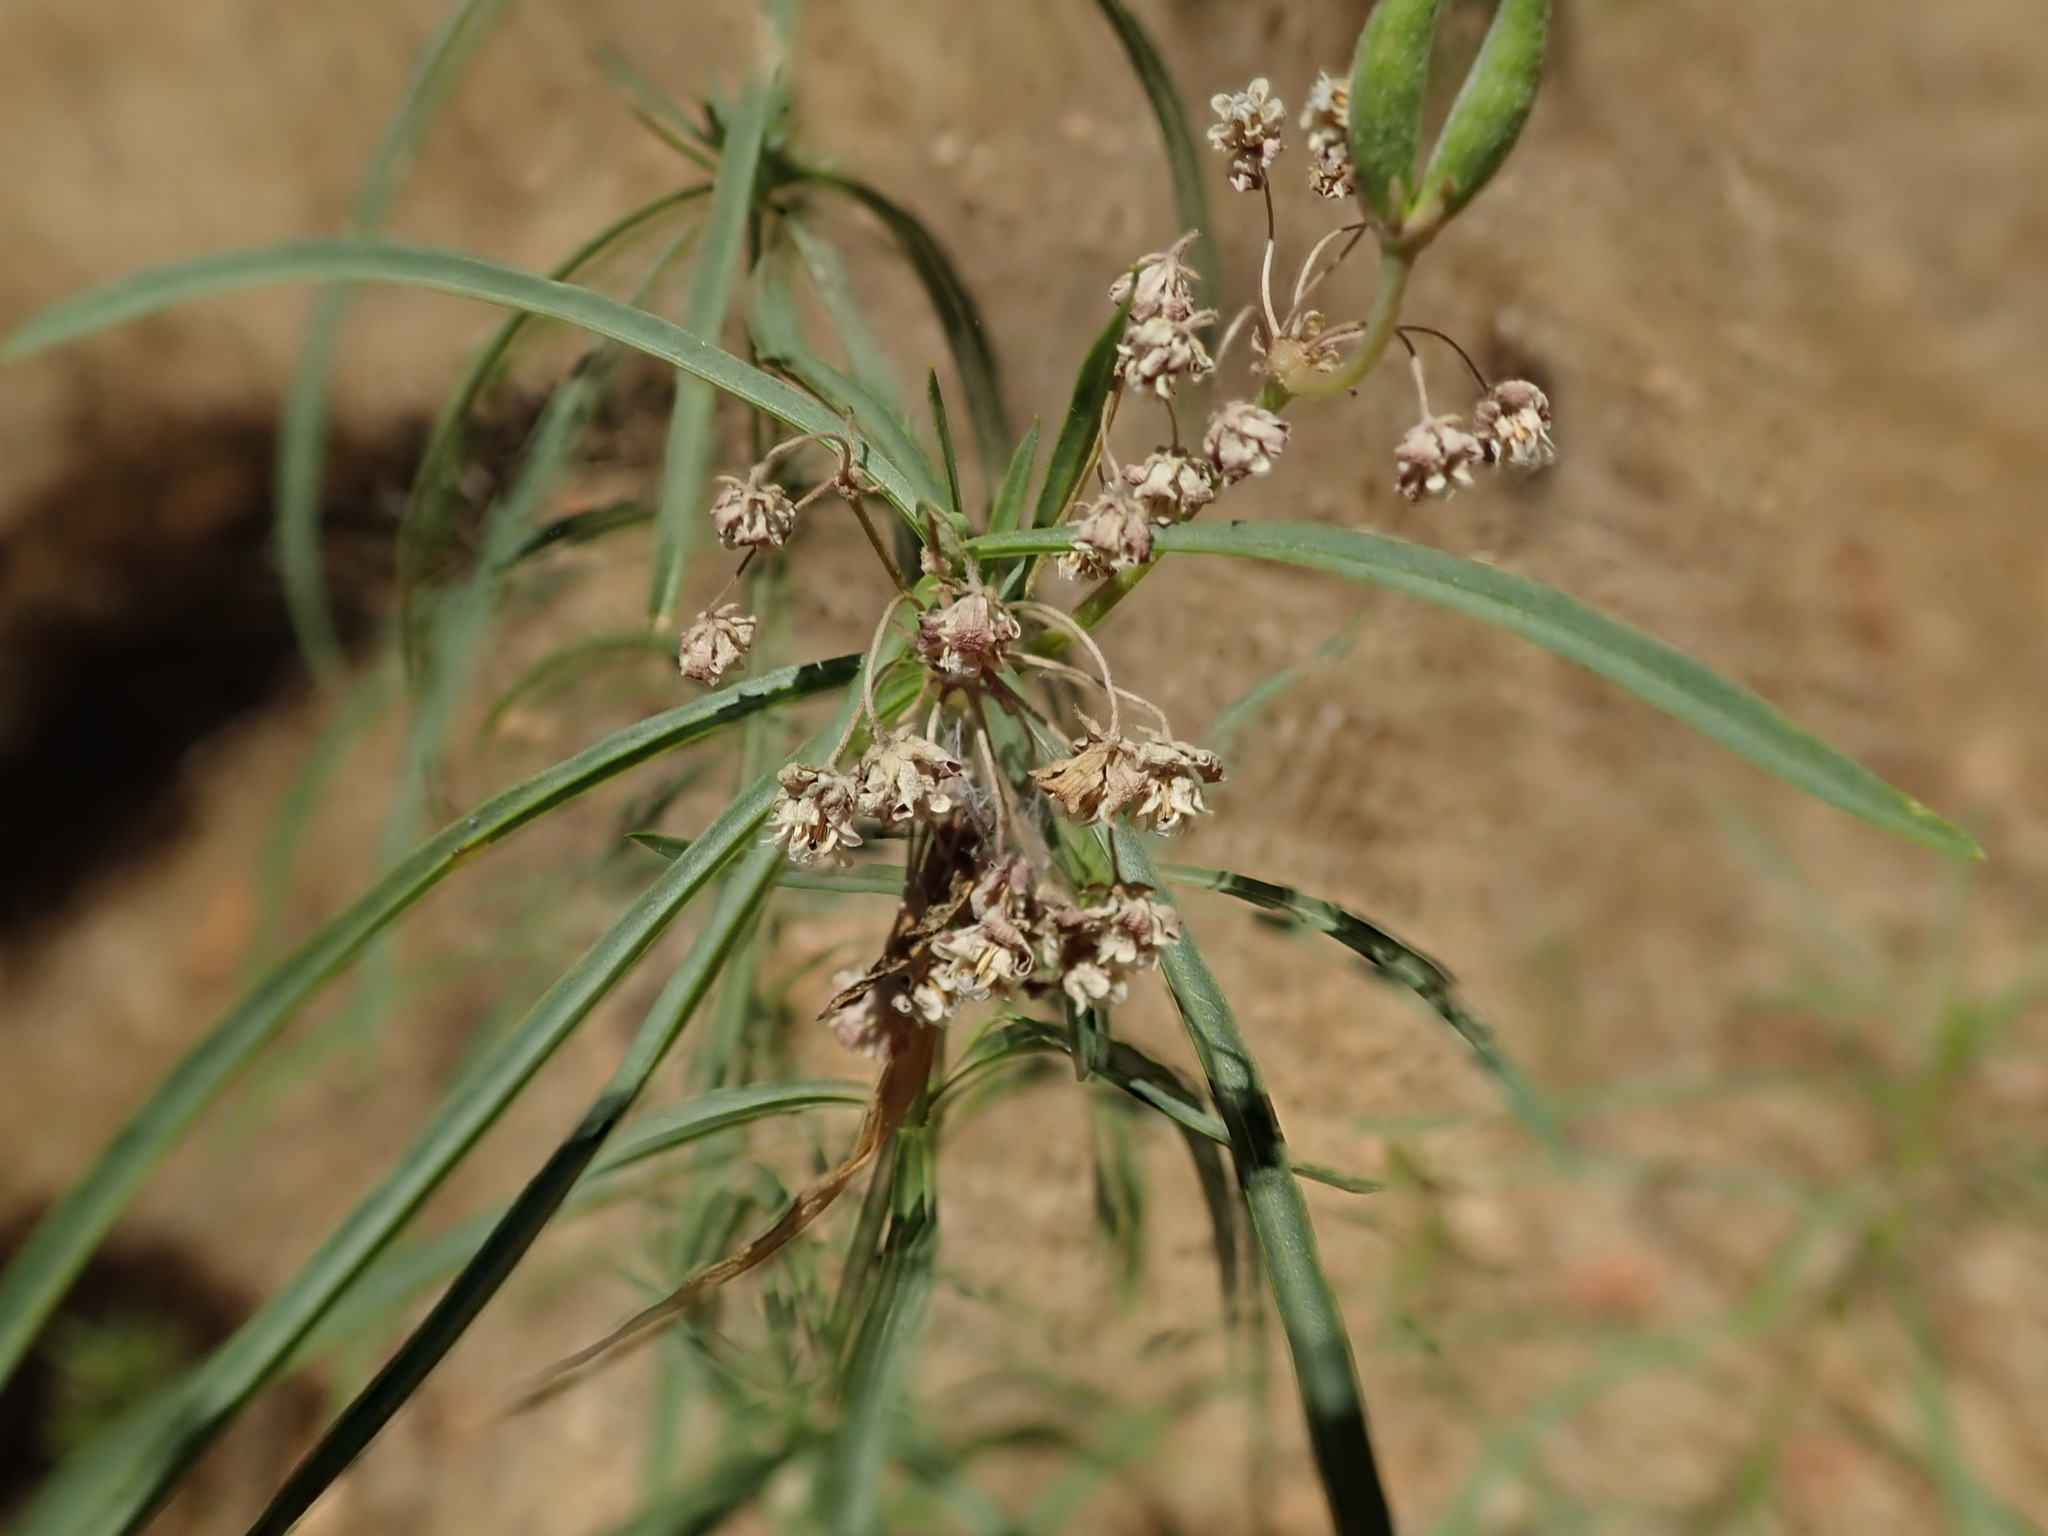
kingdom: Animalia
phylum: Arthropoda
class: Insecta
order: Lepidoptera
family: Nymphalidae
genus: Danaus
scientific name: Danaus plexippus
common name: Monarch
